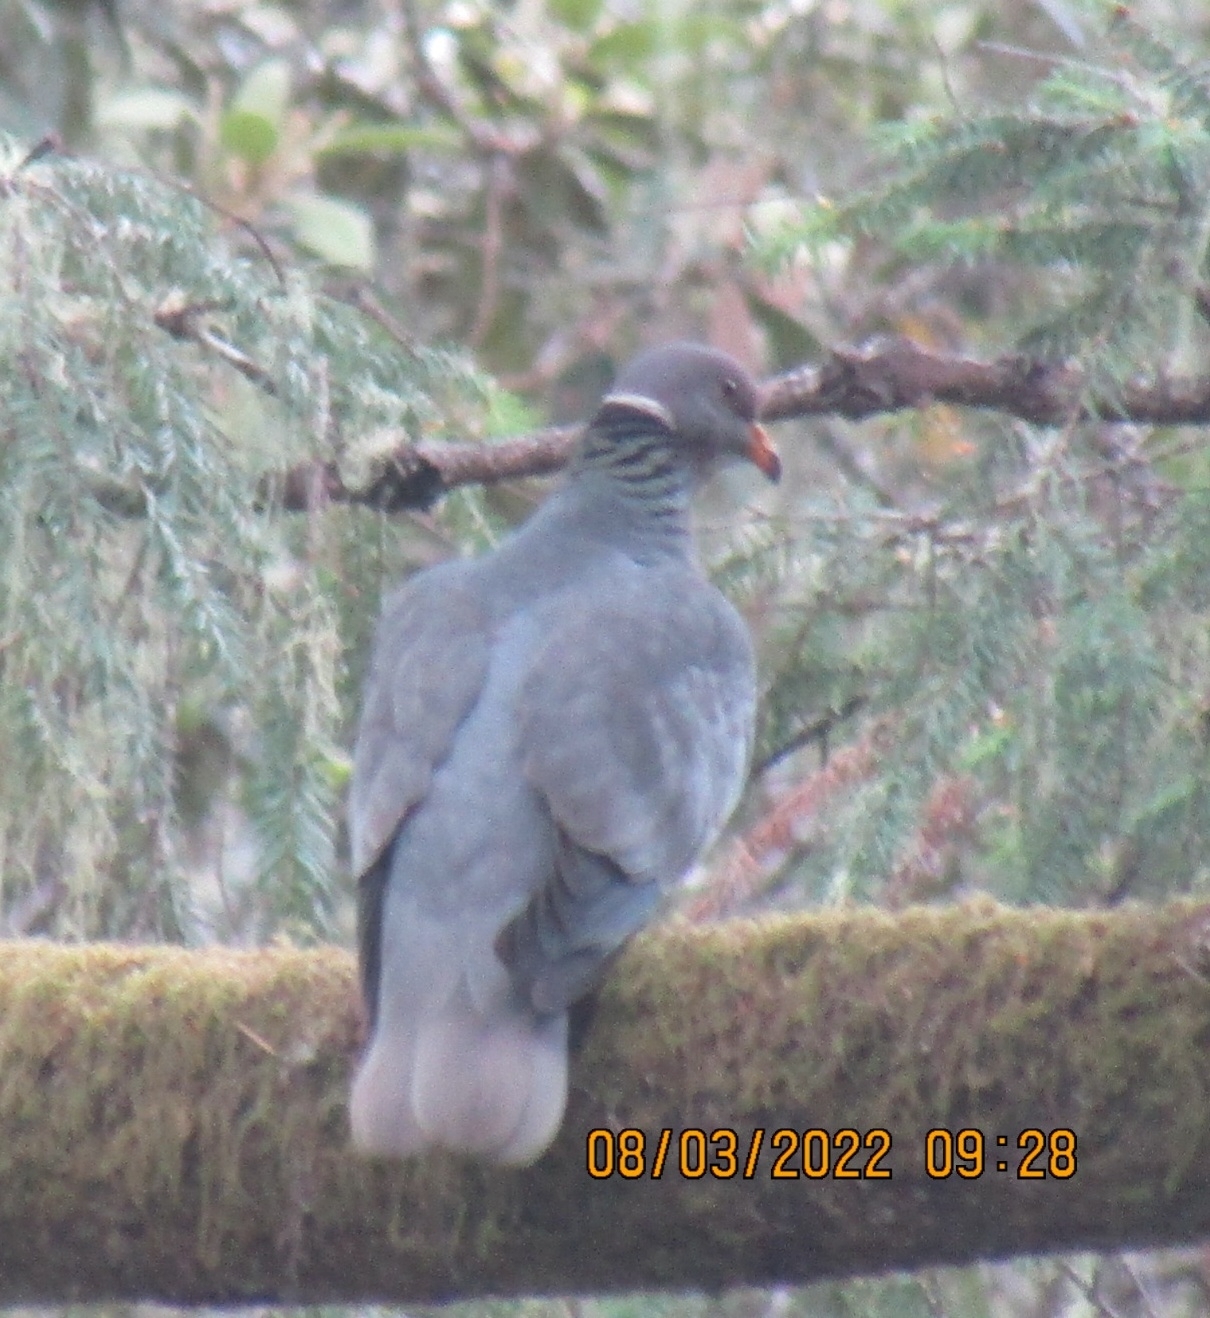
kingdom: Animalia
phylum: Chordata
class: Aves
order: Columbiformes
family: Columbidae
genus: Patagioenas
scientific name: Patagioenas fasciata
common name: Band-tailed pigeon
